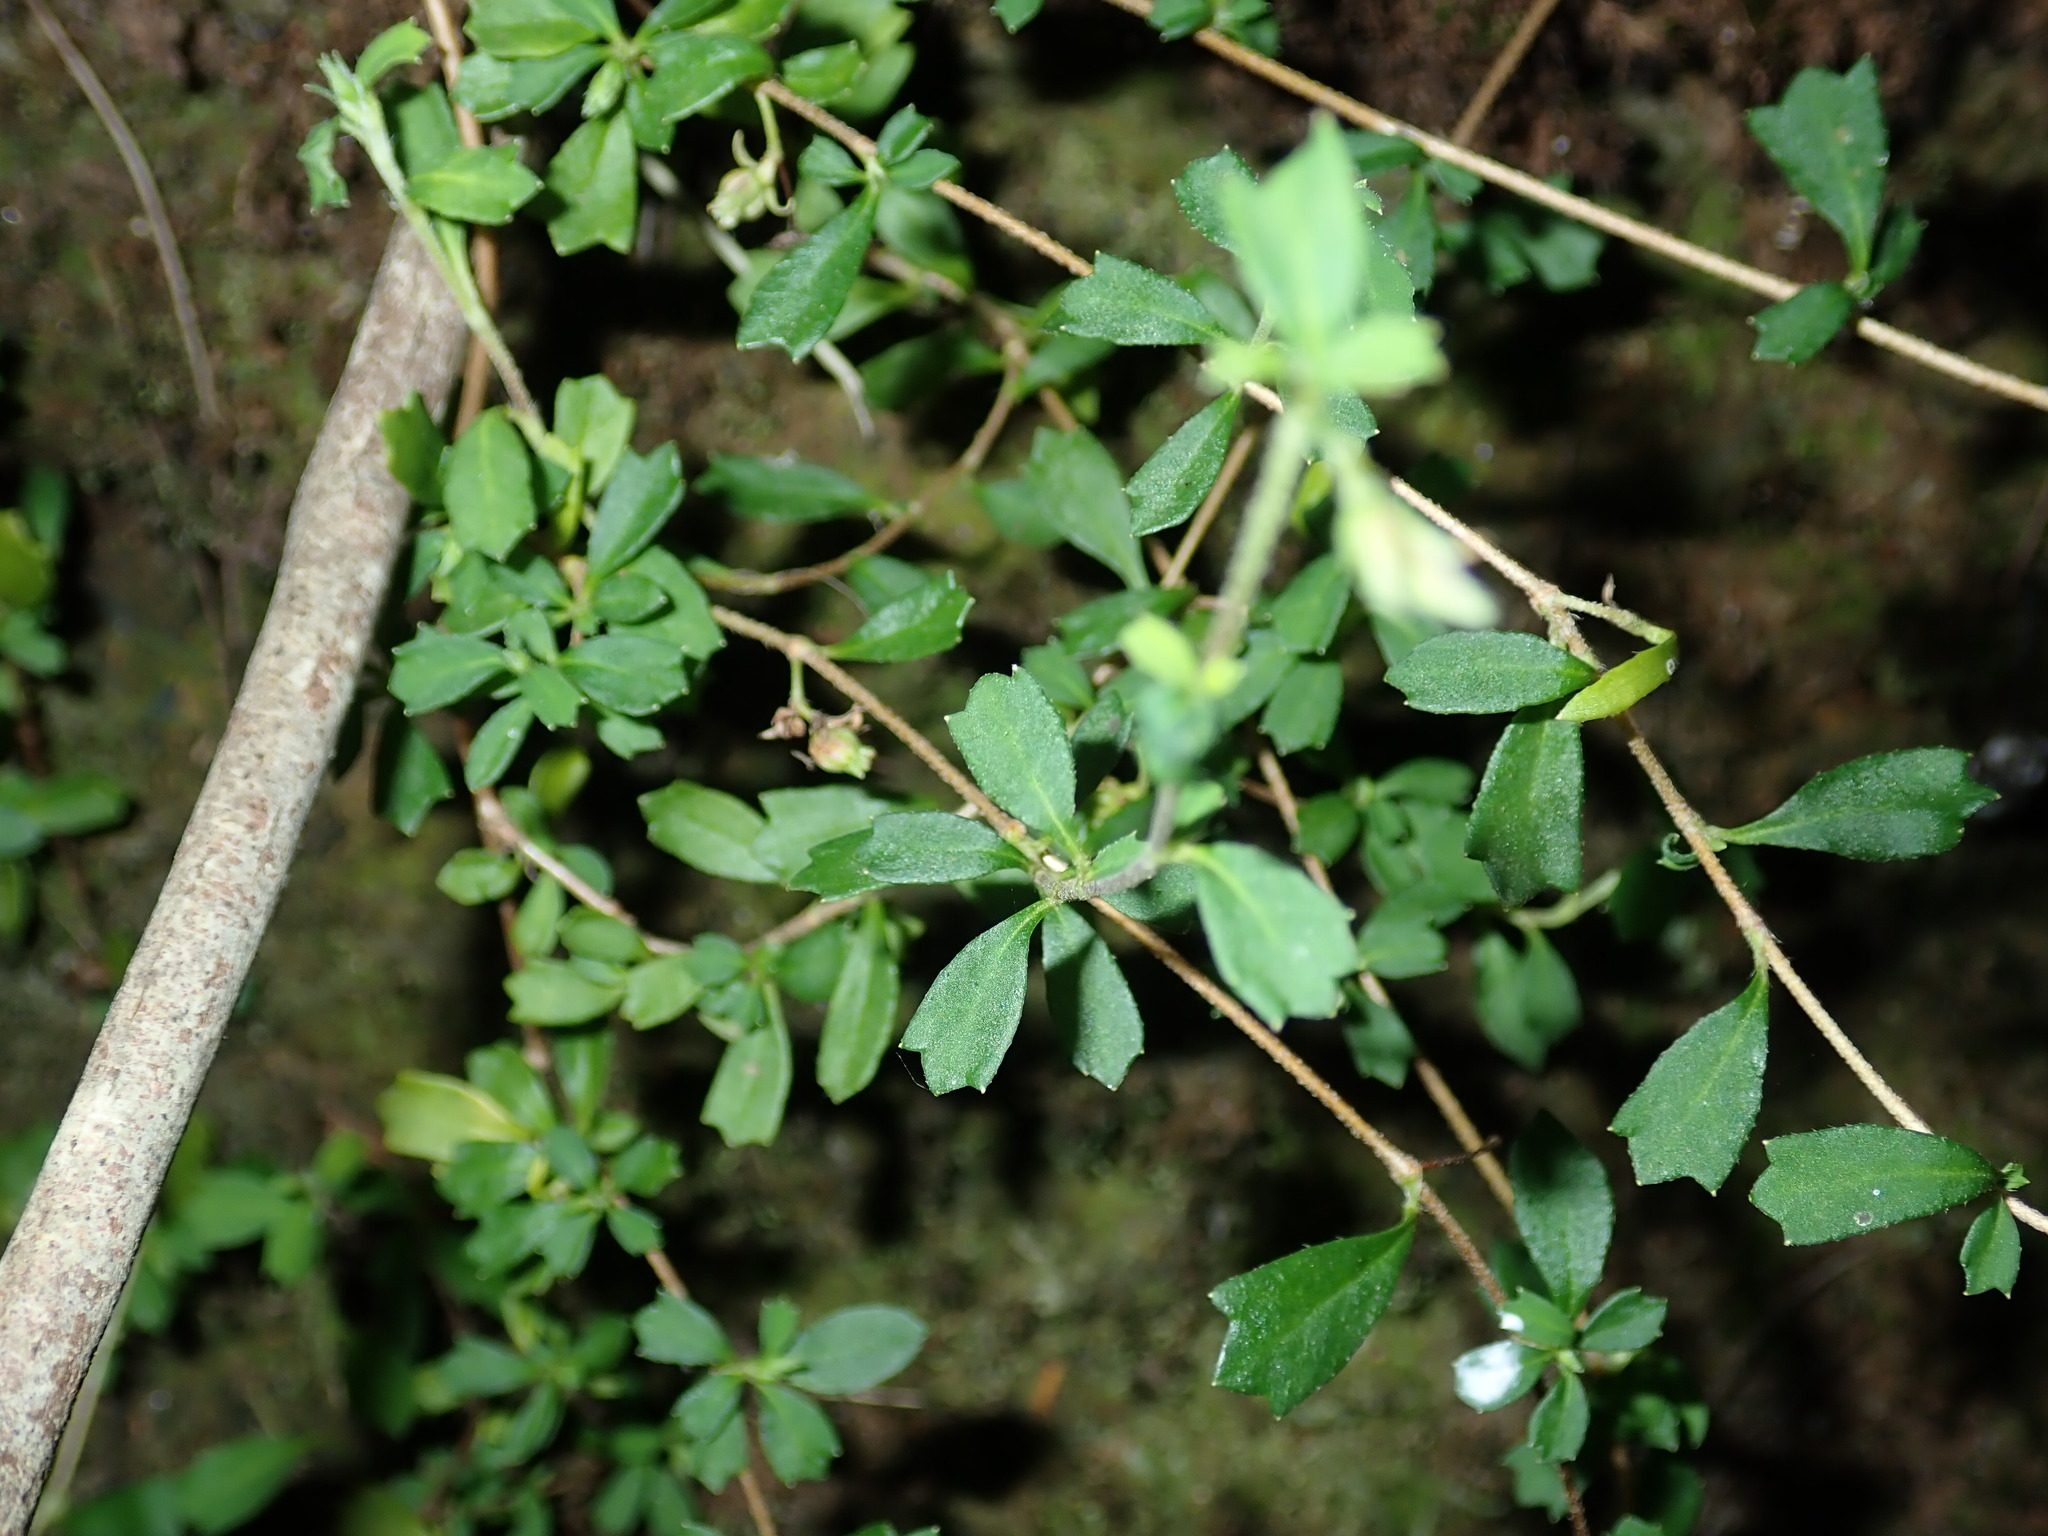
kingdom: Plantae
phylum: Tracheophyta
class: Magnoliopsida
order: Apiales
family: Apiaceae
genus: Xanthosia
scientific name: Xanthosia tridentata
